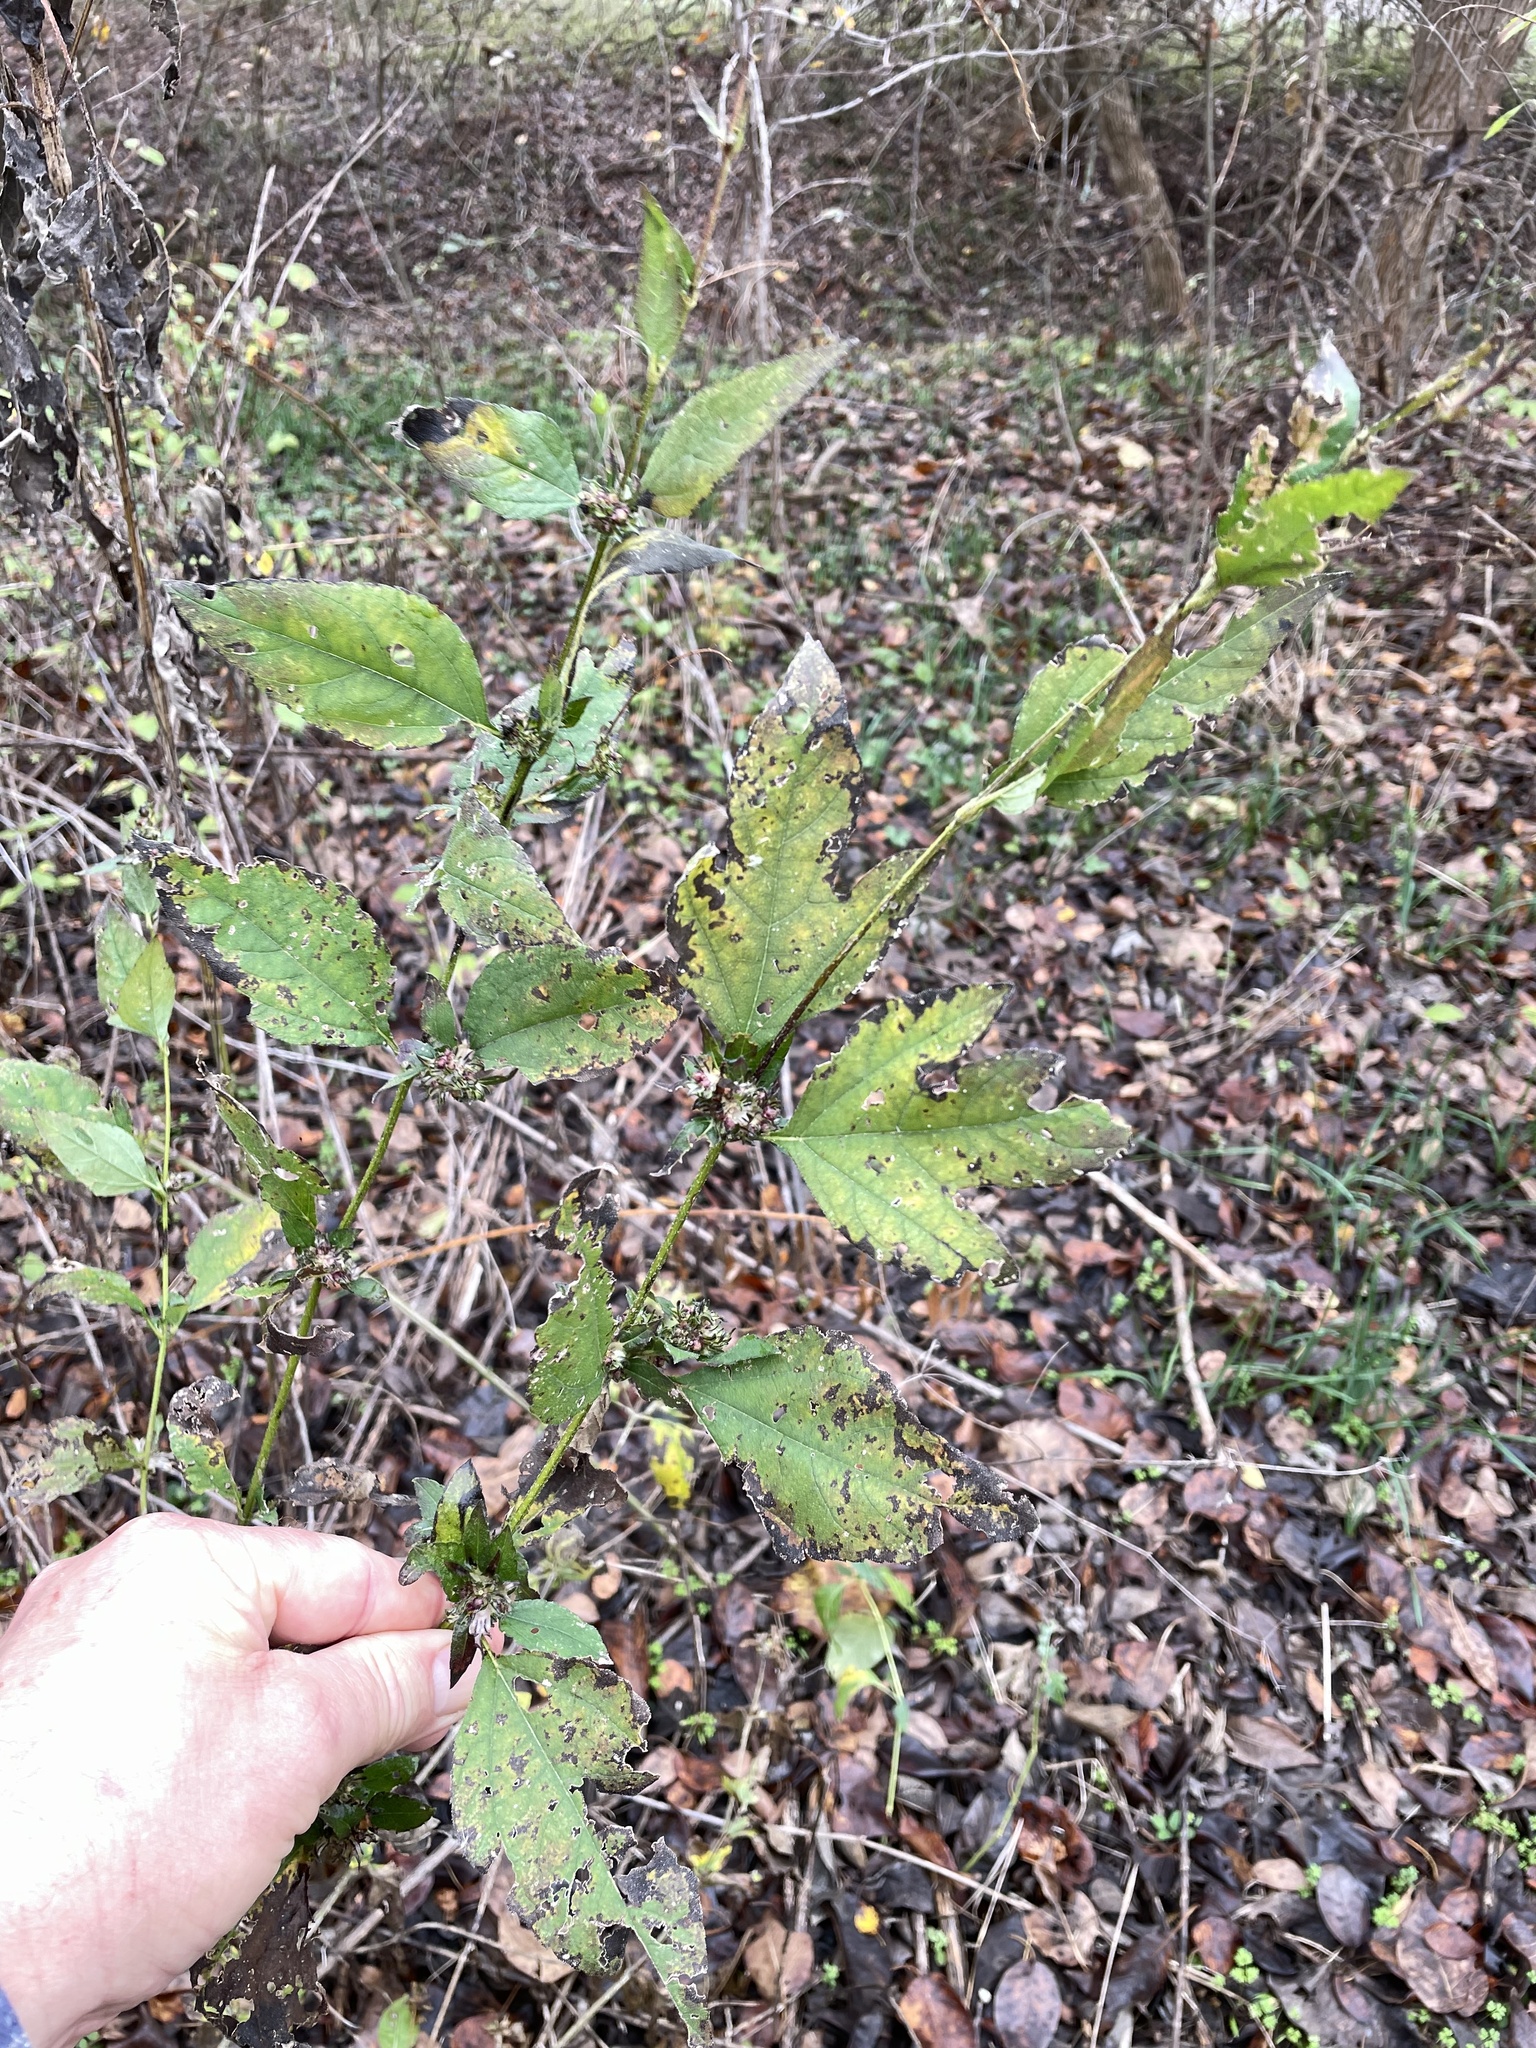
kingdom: Plantae
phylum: Tracheophyta
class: Magnoliopsida
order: Asterales
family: Asteraceae
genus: Ambrosia
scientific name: Ambrosia trifida
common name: Giant ragweed
